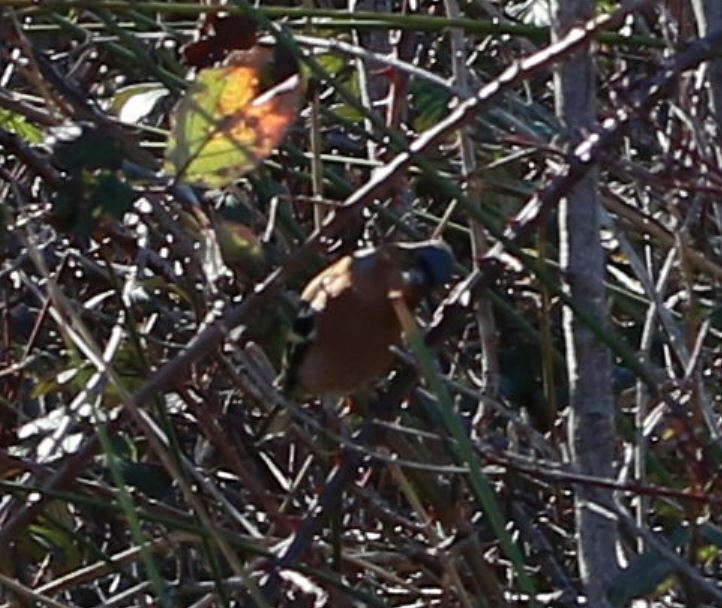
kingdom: Animalia
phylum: Chordata
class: Aves
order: Passeriformes
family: Fringillidae
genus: Fringilla
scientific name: Fringilla coelebs
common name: Common chaffinch
